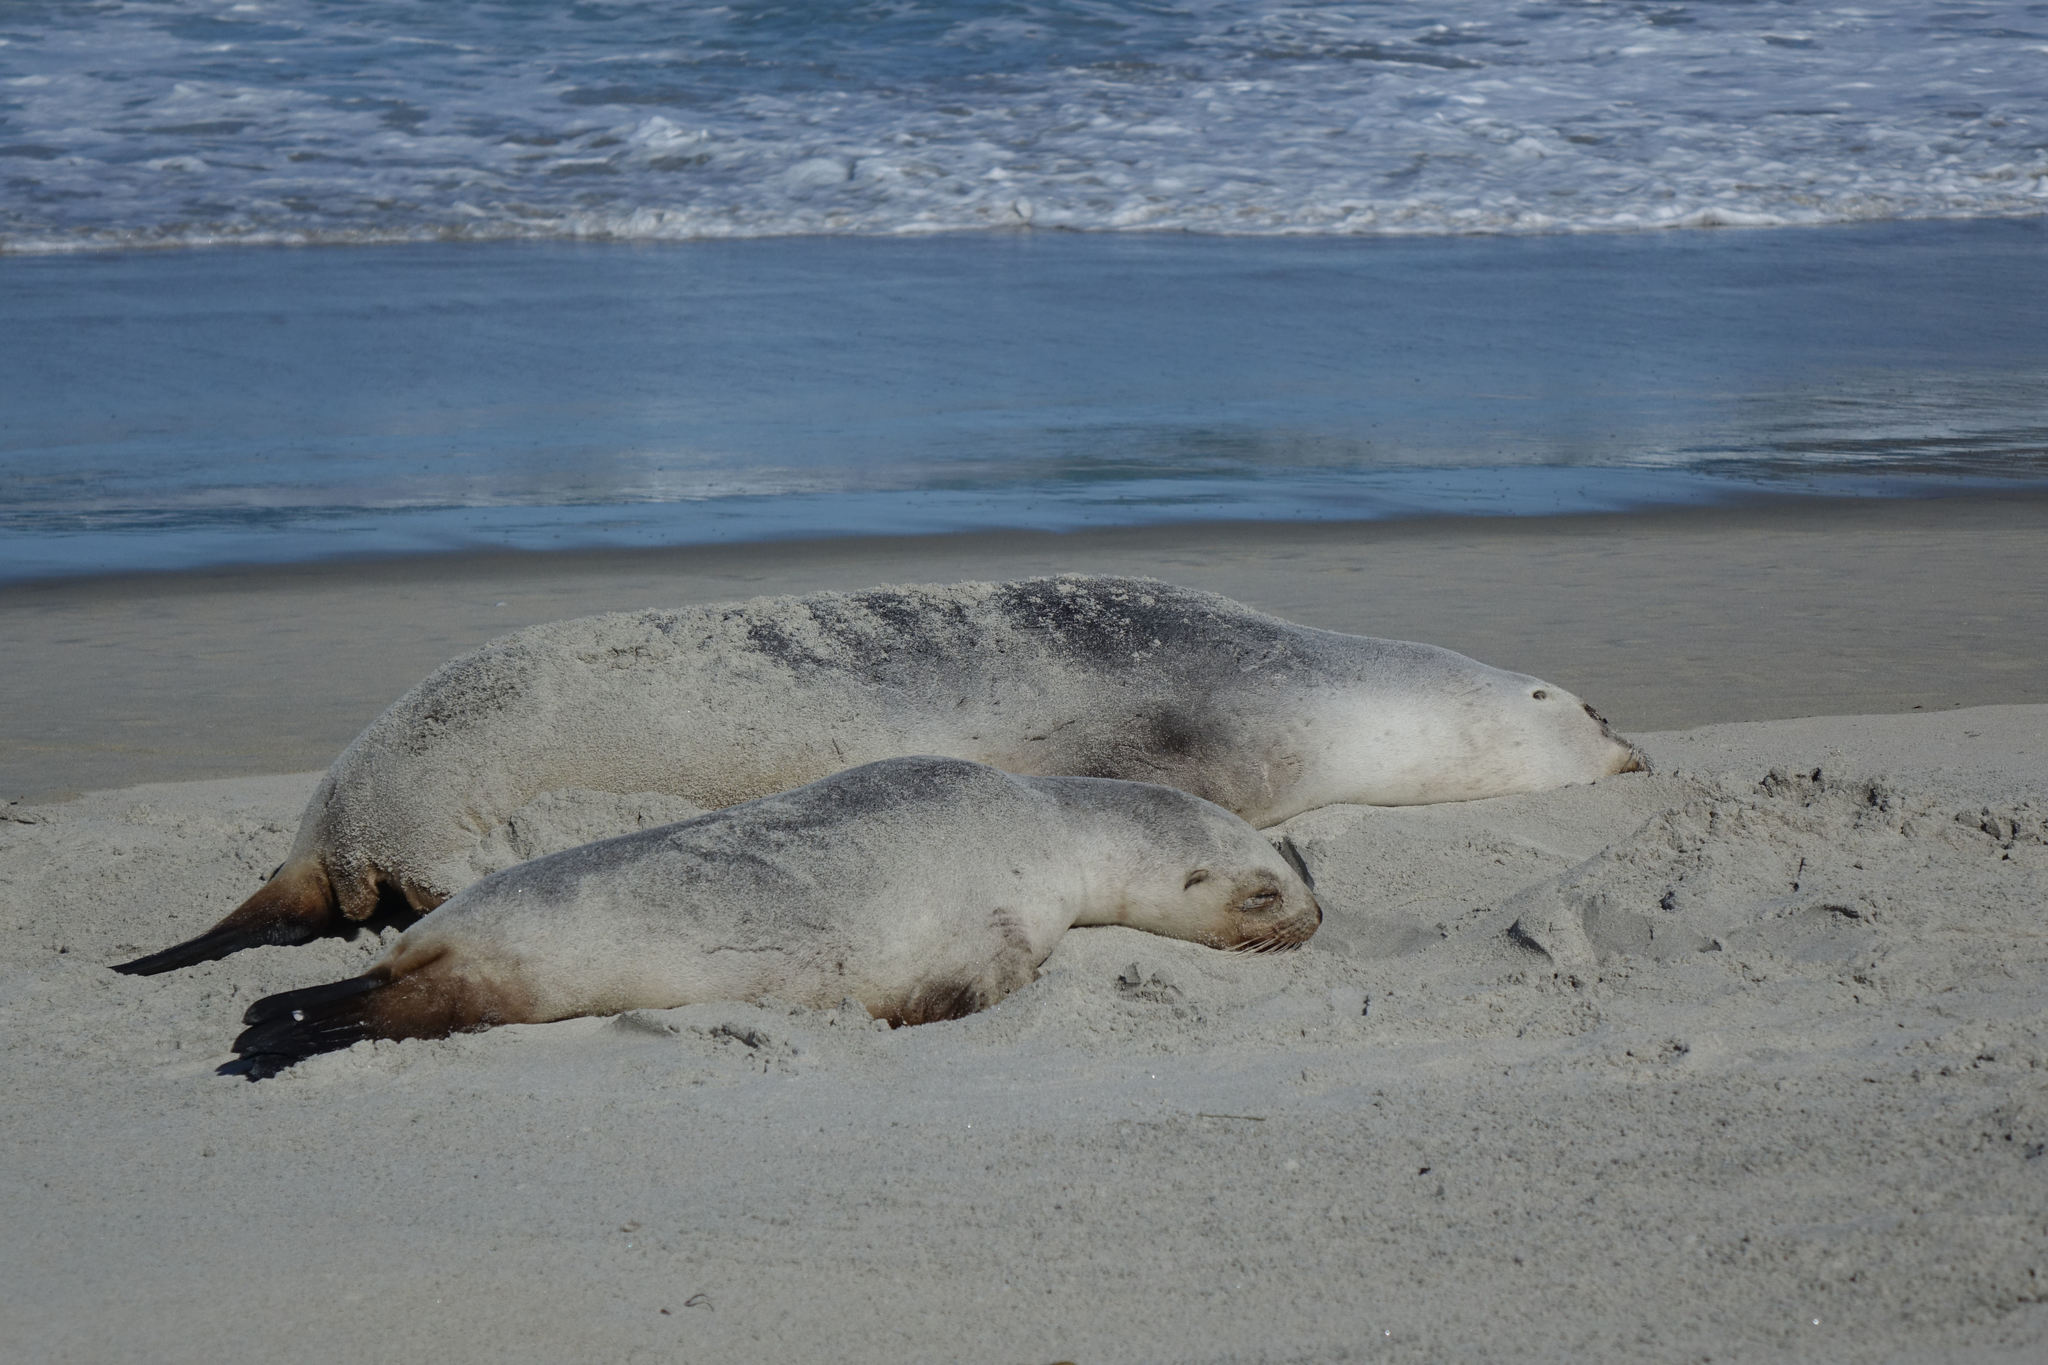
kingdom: Animalia
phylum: Chordata
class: Mammalia
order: Carnivora
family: Otariidae
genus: Phocarctos
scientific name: Phocarctos hookeri
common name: New zealand sea lion
